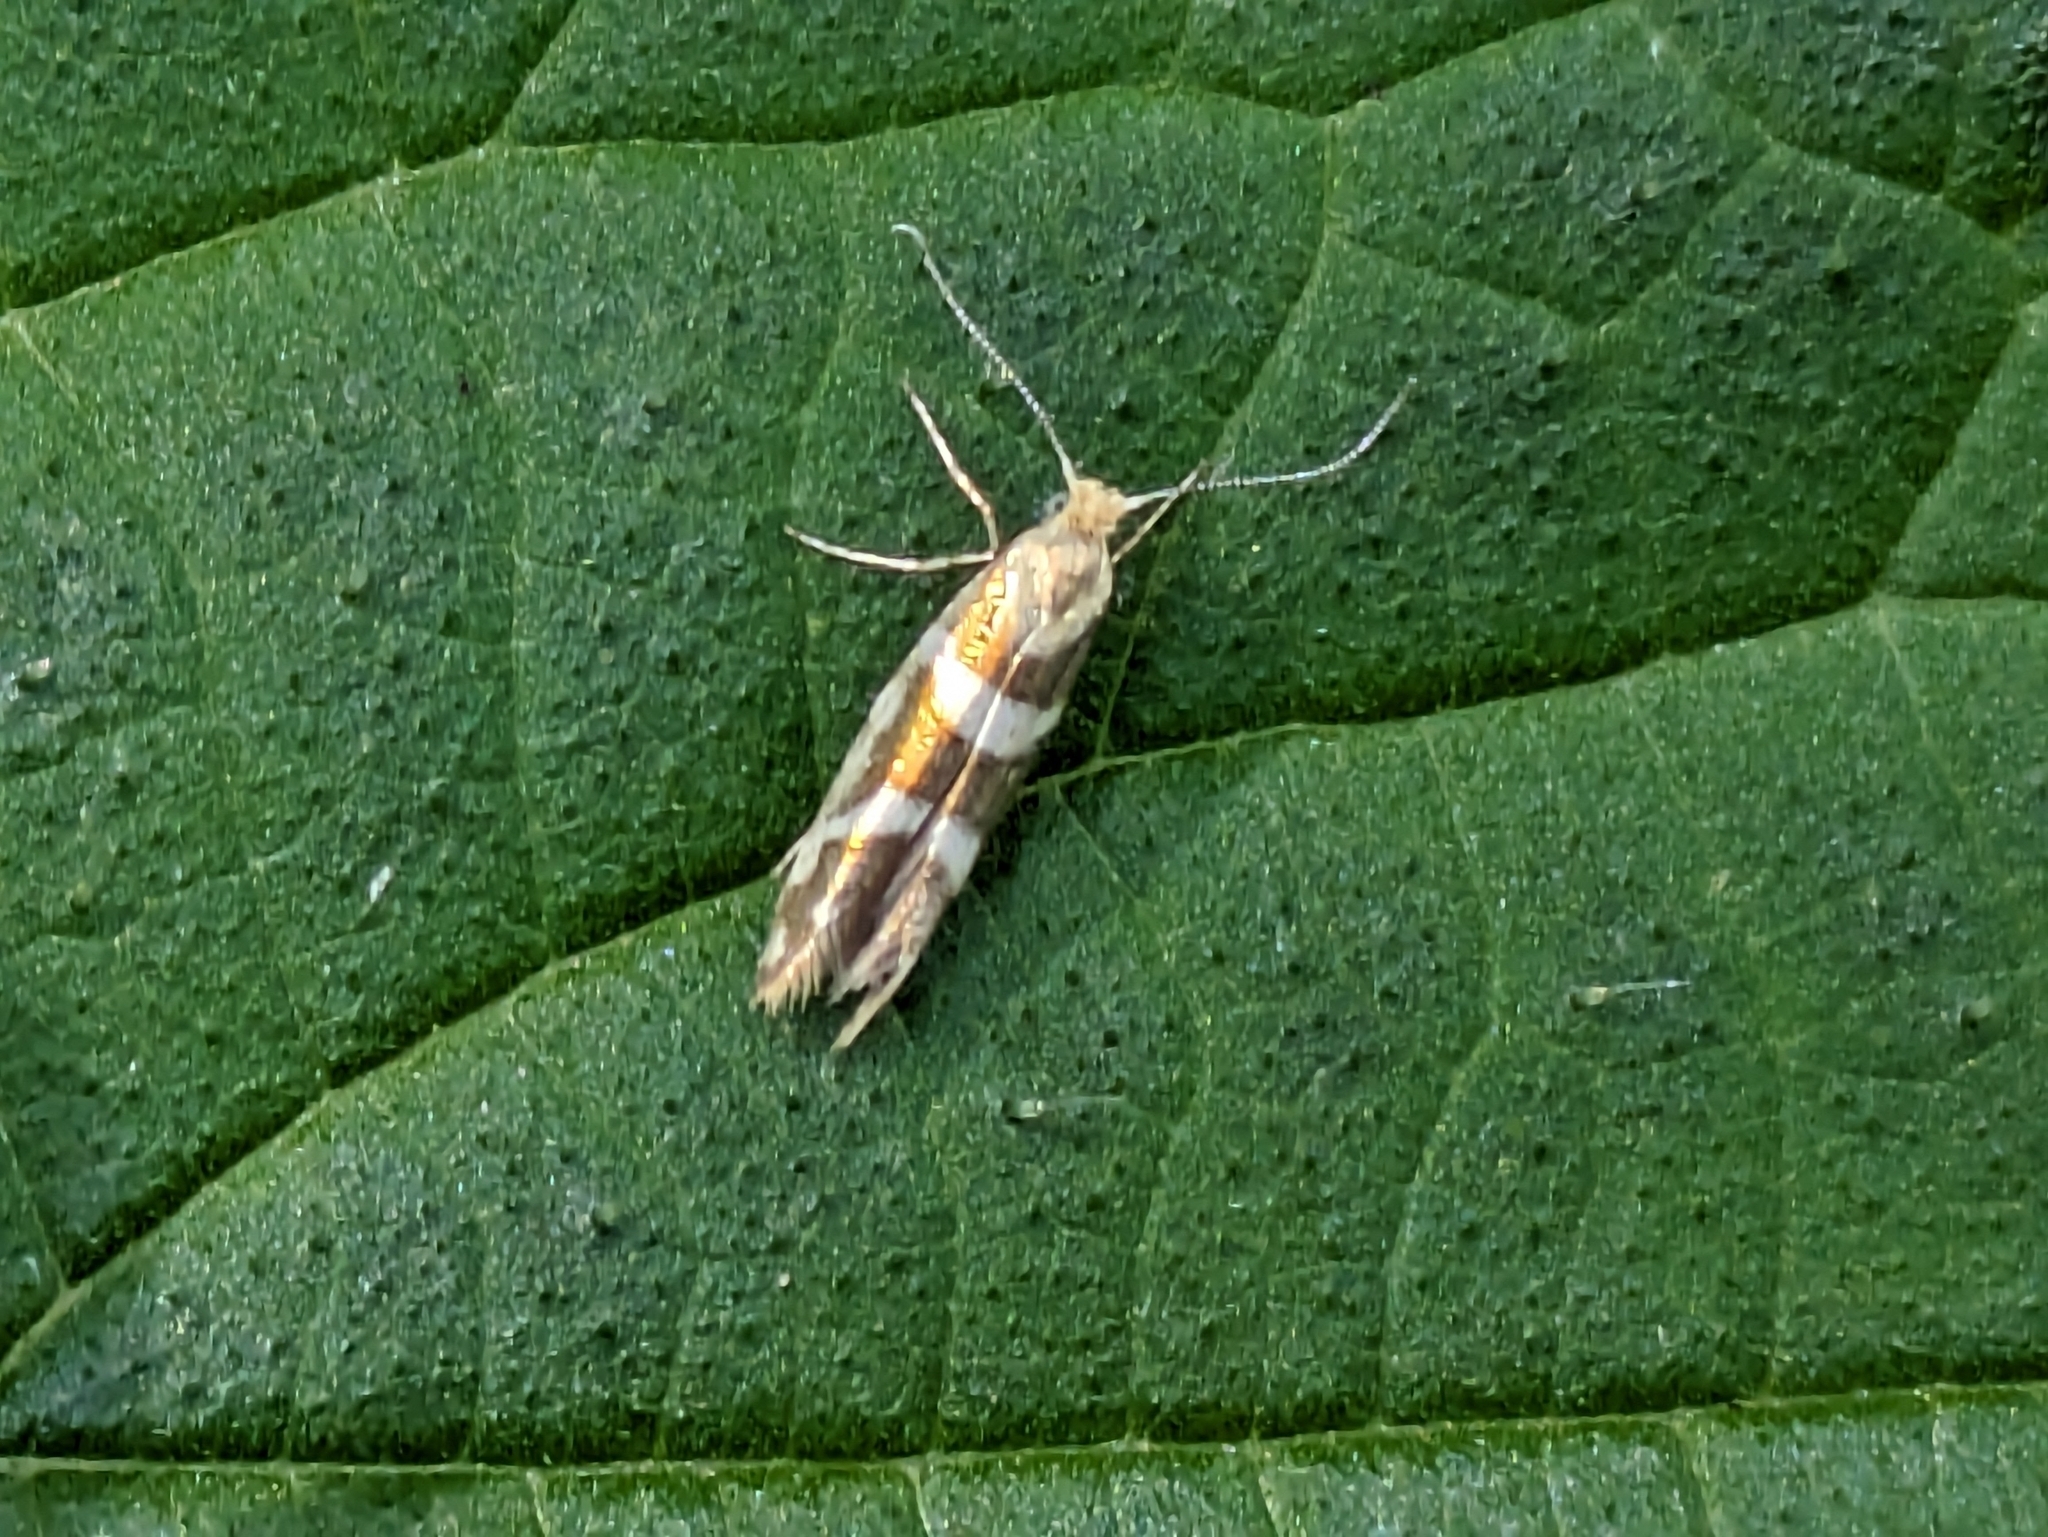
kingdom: Animalia
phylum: Arthropoda
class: Insecta
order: Lepidoptera
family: Argyresthiidae
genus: Argyresthia
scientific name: Argyresthia goedartella
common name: Golden argent
